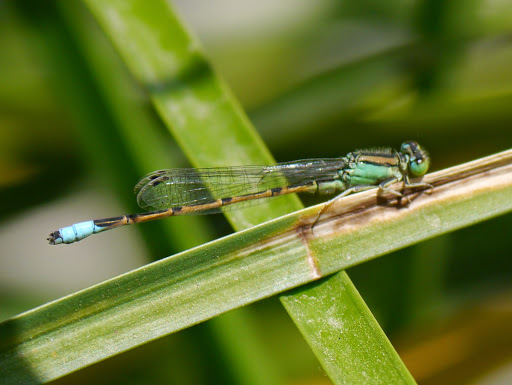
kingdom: Animalia
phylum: Arthropoda
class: Insecta
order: Odonata
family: Coenagrionidae
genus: Ischnura
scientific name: Ischnura barberi
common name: Desert forktail
